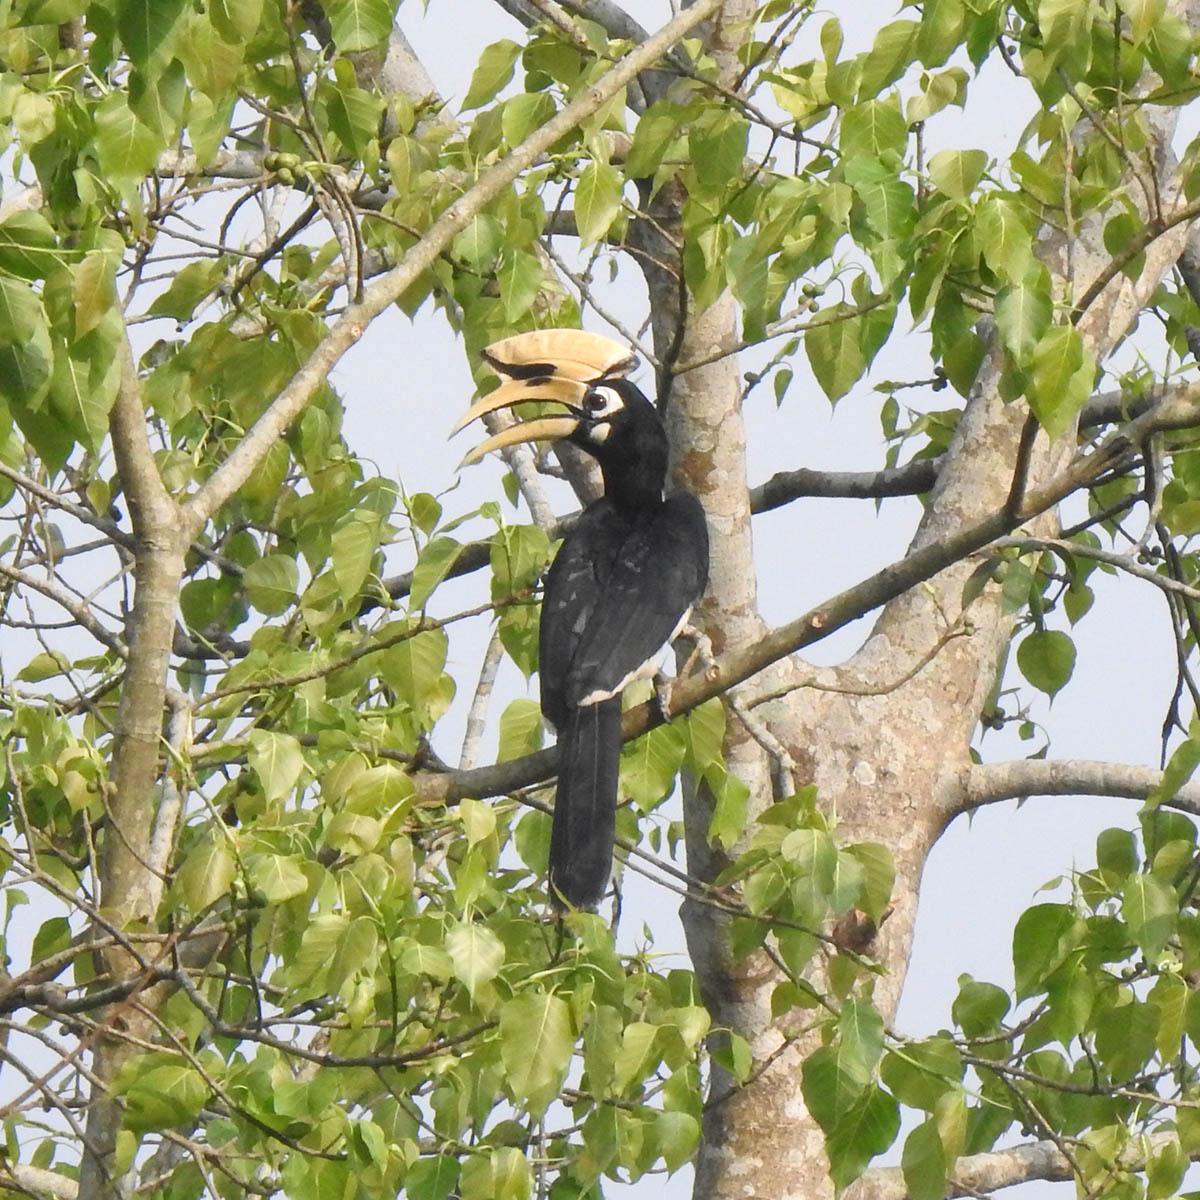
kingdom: Animalia
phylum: Chordata
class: Aves
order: Bucerotiformes
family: Bucerotidae
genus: Anthracoceros
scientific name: Anthracoceros albirostris
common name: Oriental pied-hornbill
